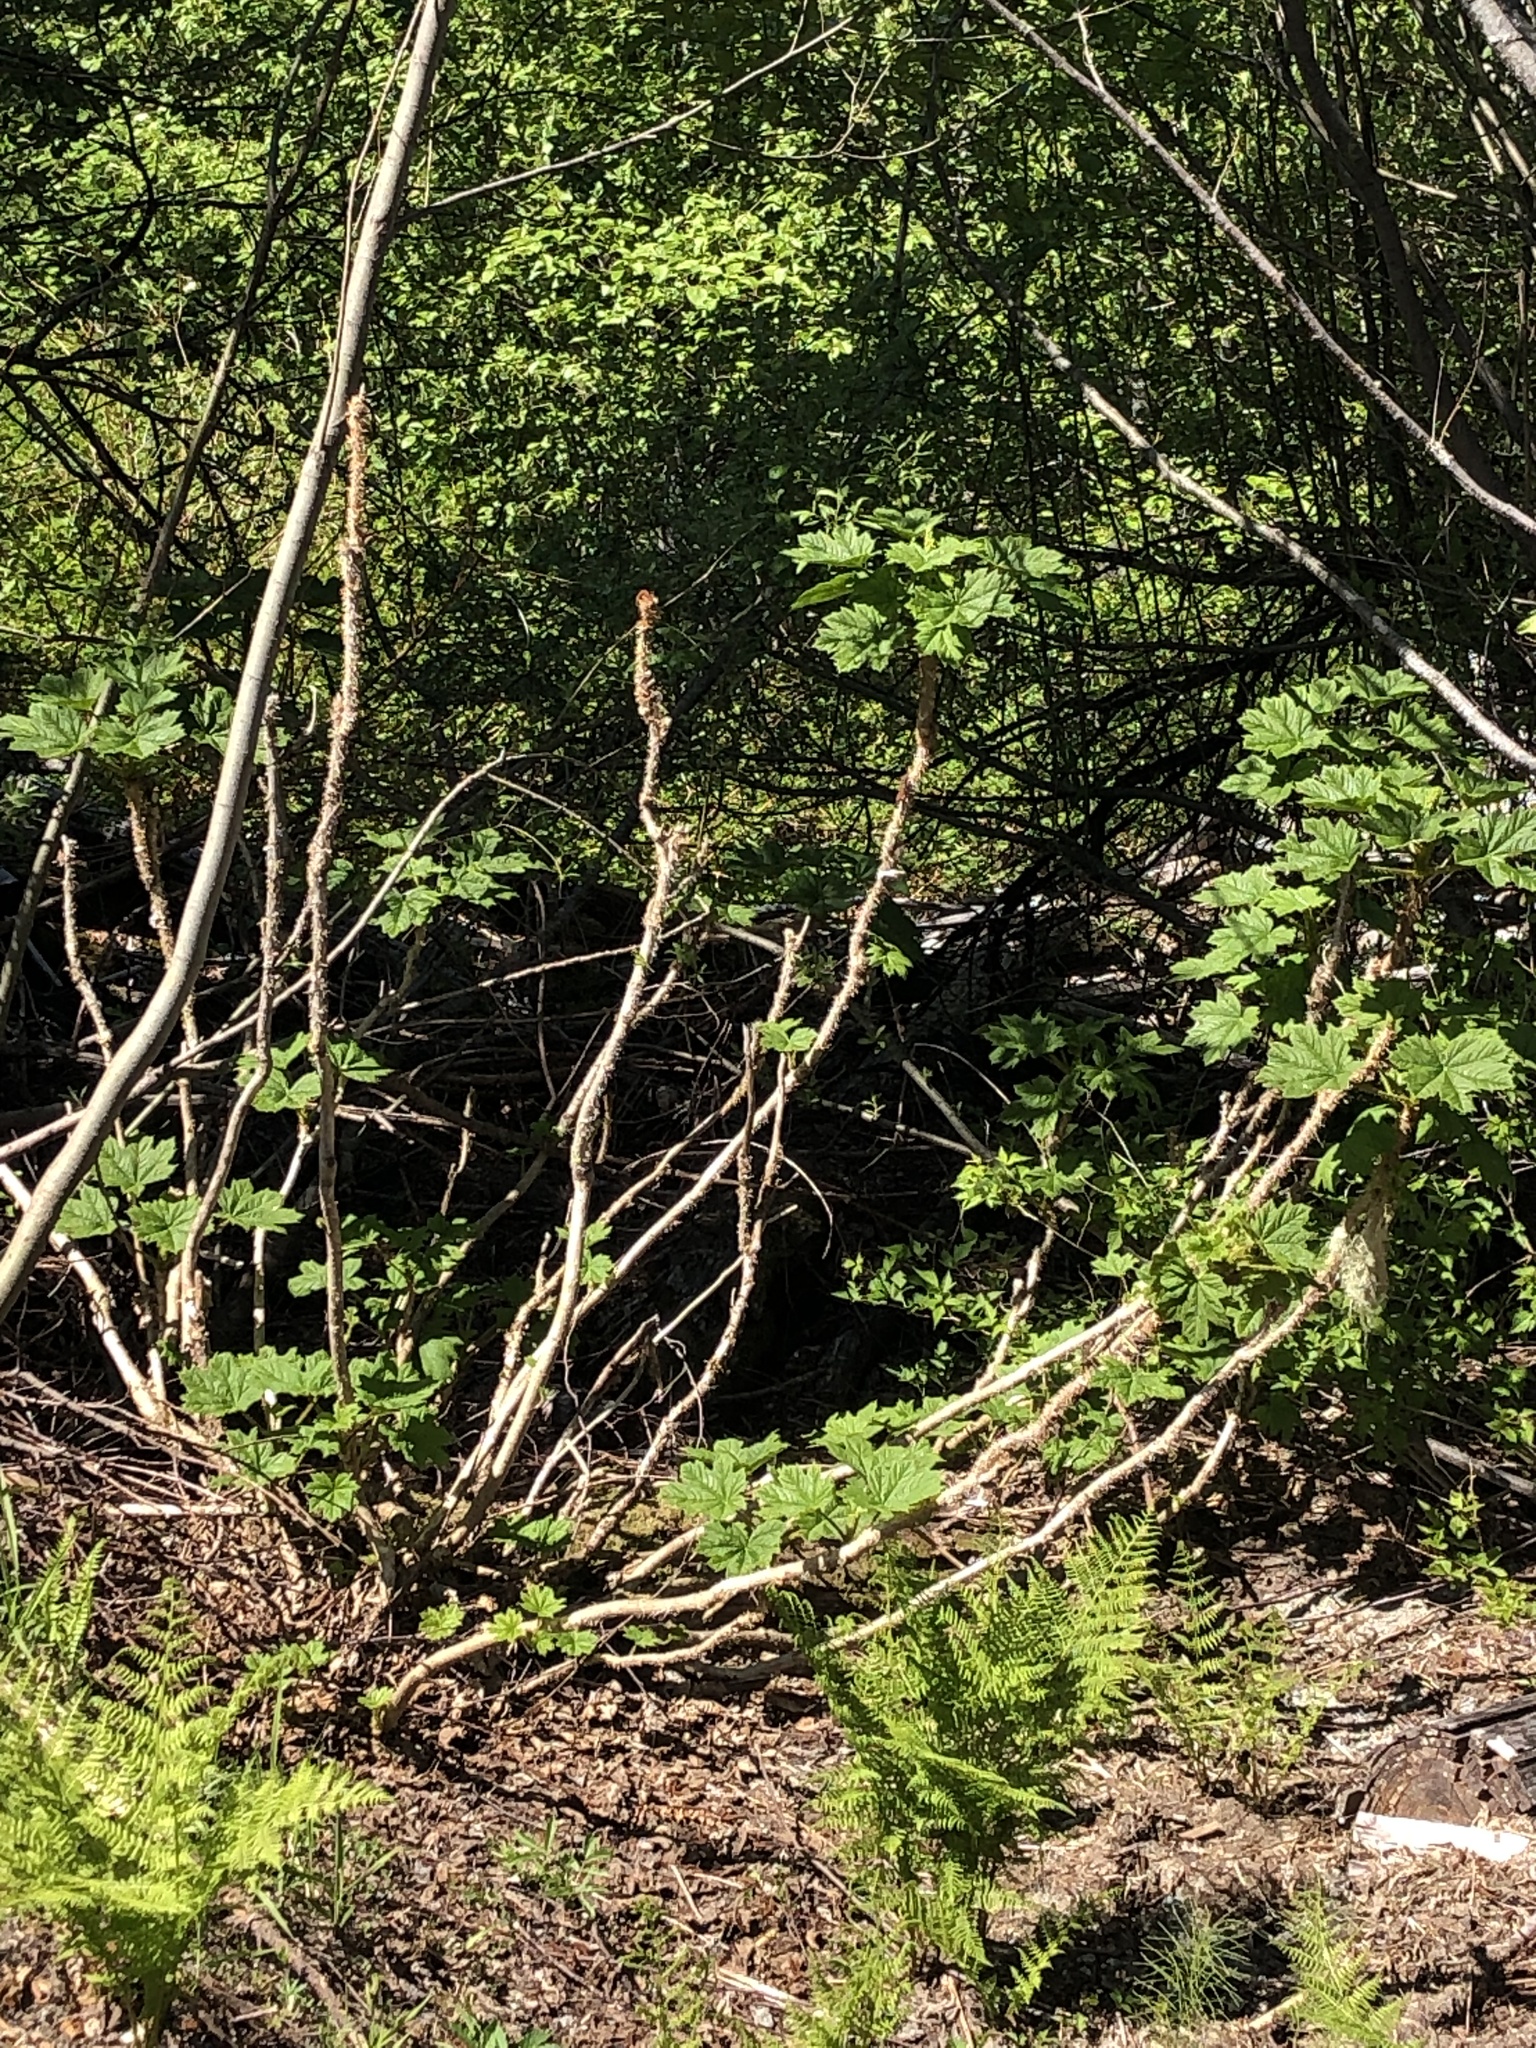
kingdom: Plantae
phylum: Tracheophyta
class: Magnoliopsida
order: Apiales
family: Araliaceae
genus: Oplopanax
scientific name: Oplopanax horridus
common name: Devil's walking-stick
